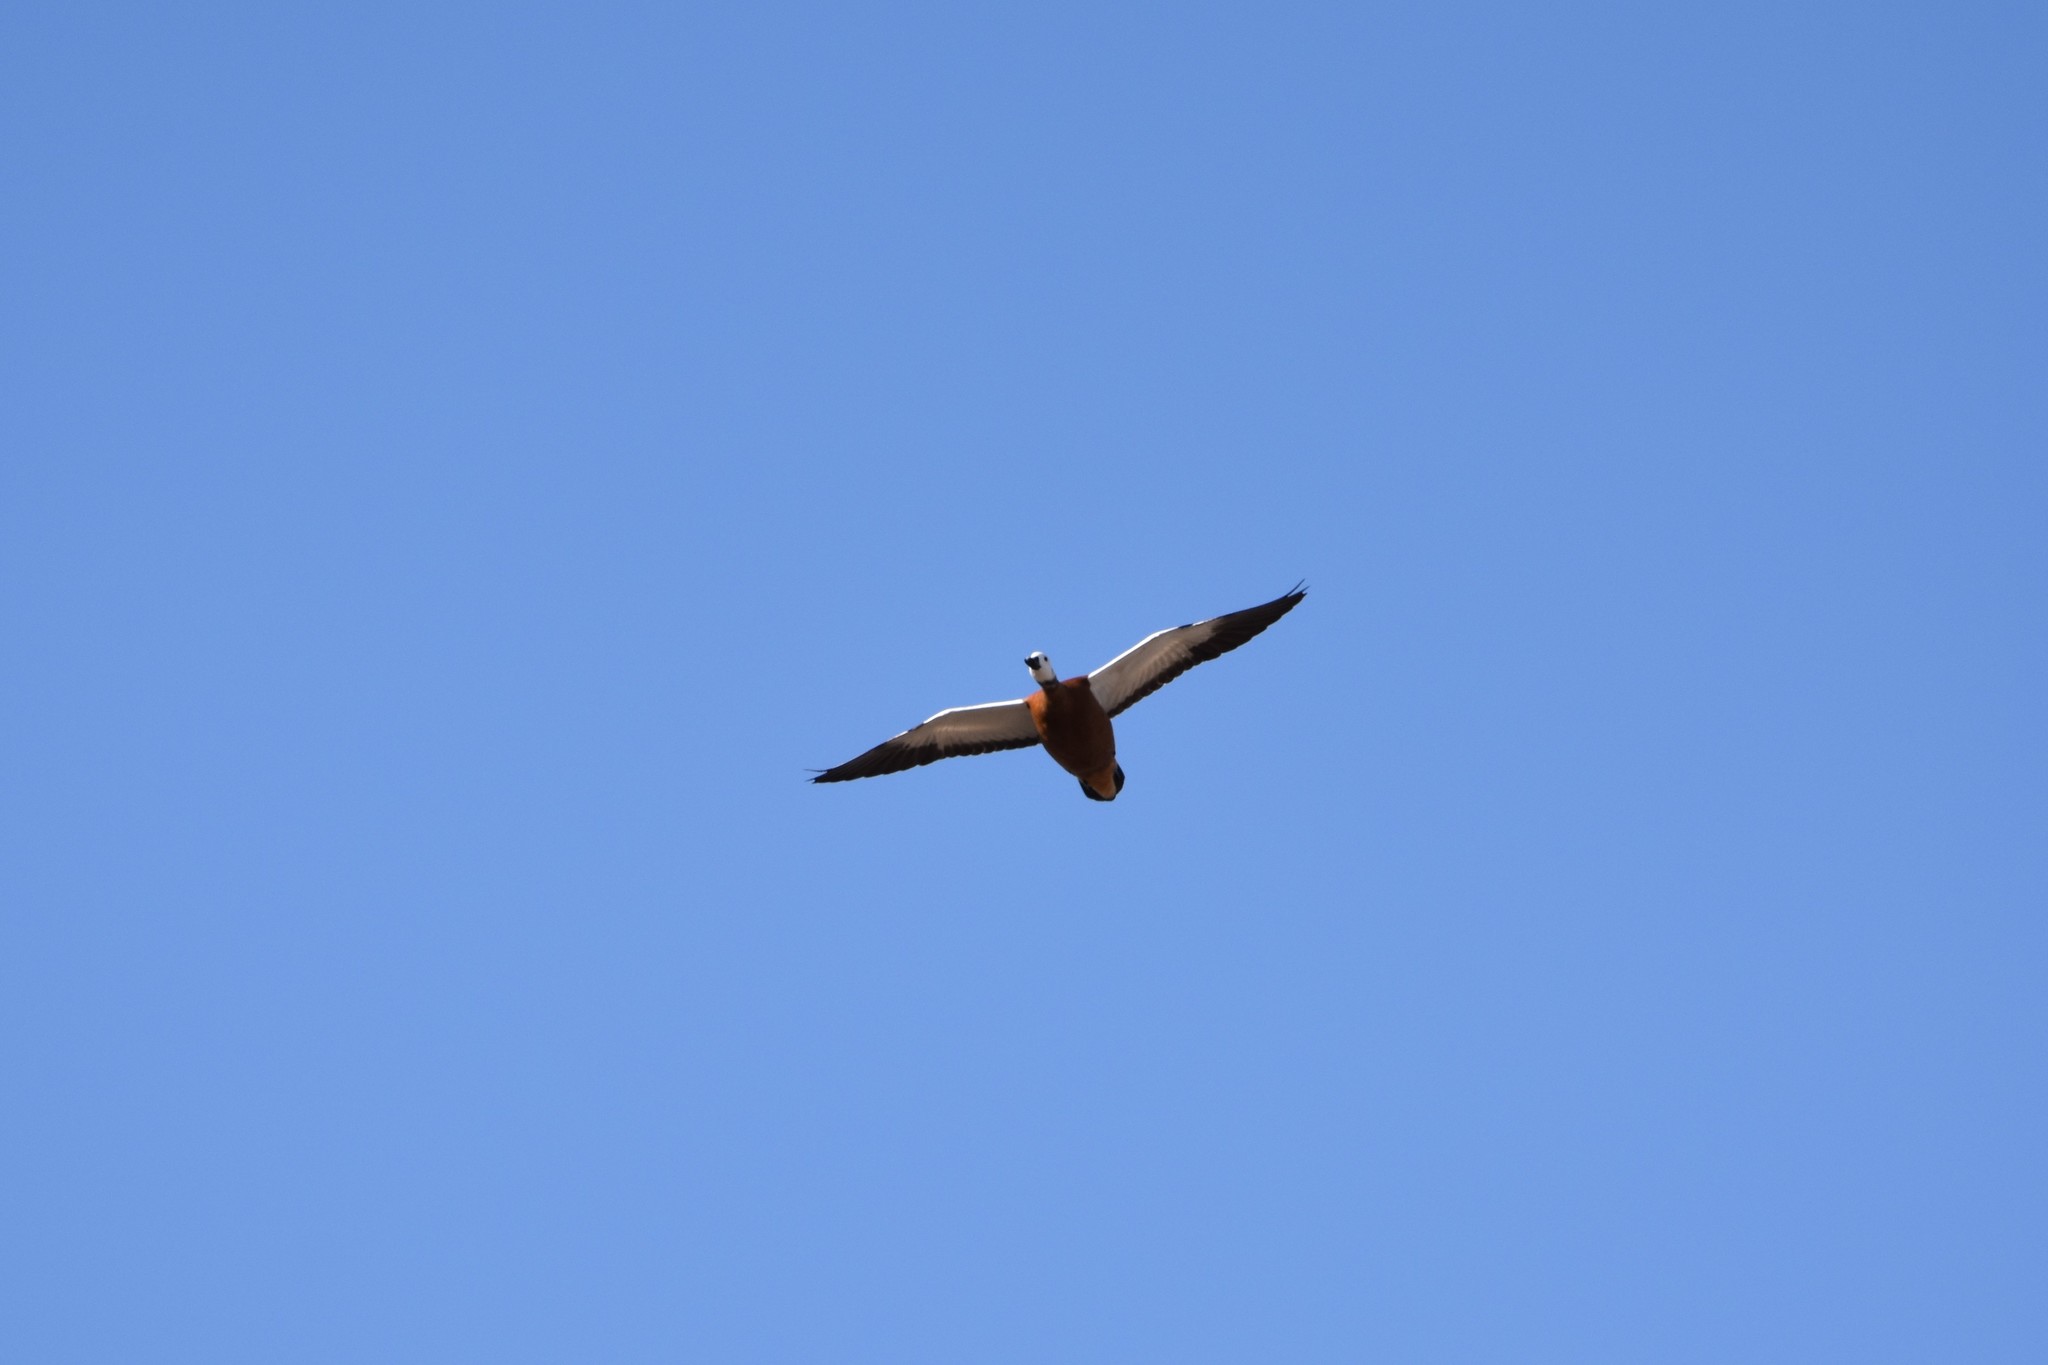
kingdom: Animalia
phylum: Chordata
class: Aves
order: Anseriformes
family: Anatidae
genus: Tadorna
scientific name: Tadorna cana
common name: South african shelduck
